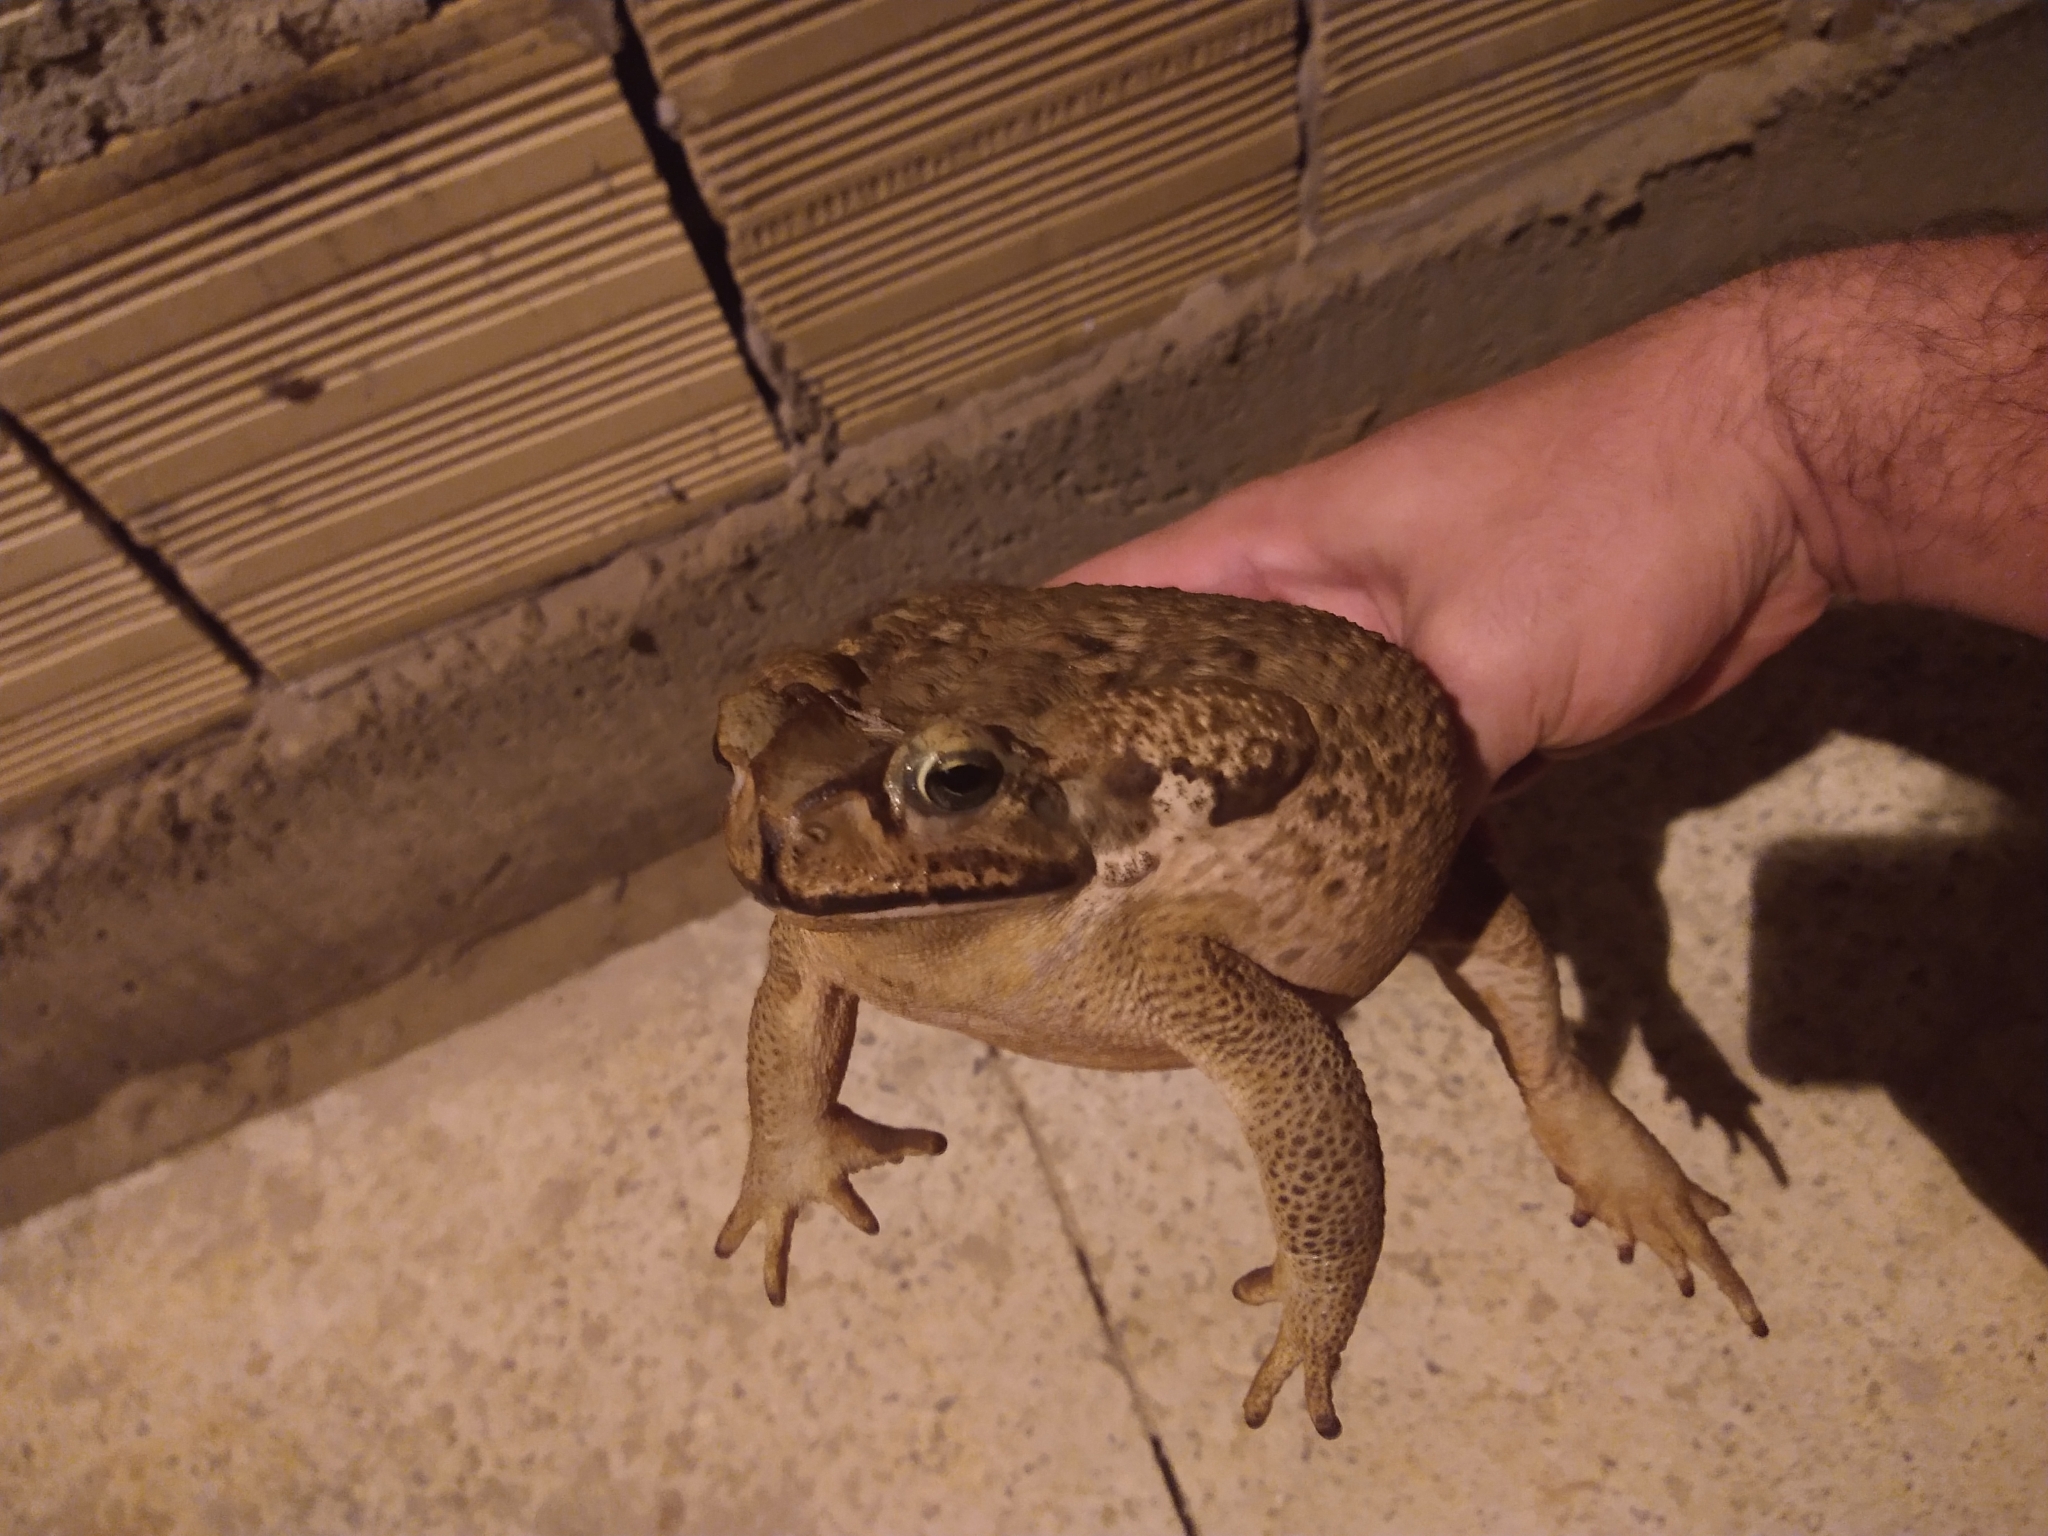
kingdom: Animalia
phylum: Chordata
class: Amphibia
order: Anura
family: Bufonidae
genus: Rhinella
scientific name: Rhinella diptycha
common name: Cope's toad
